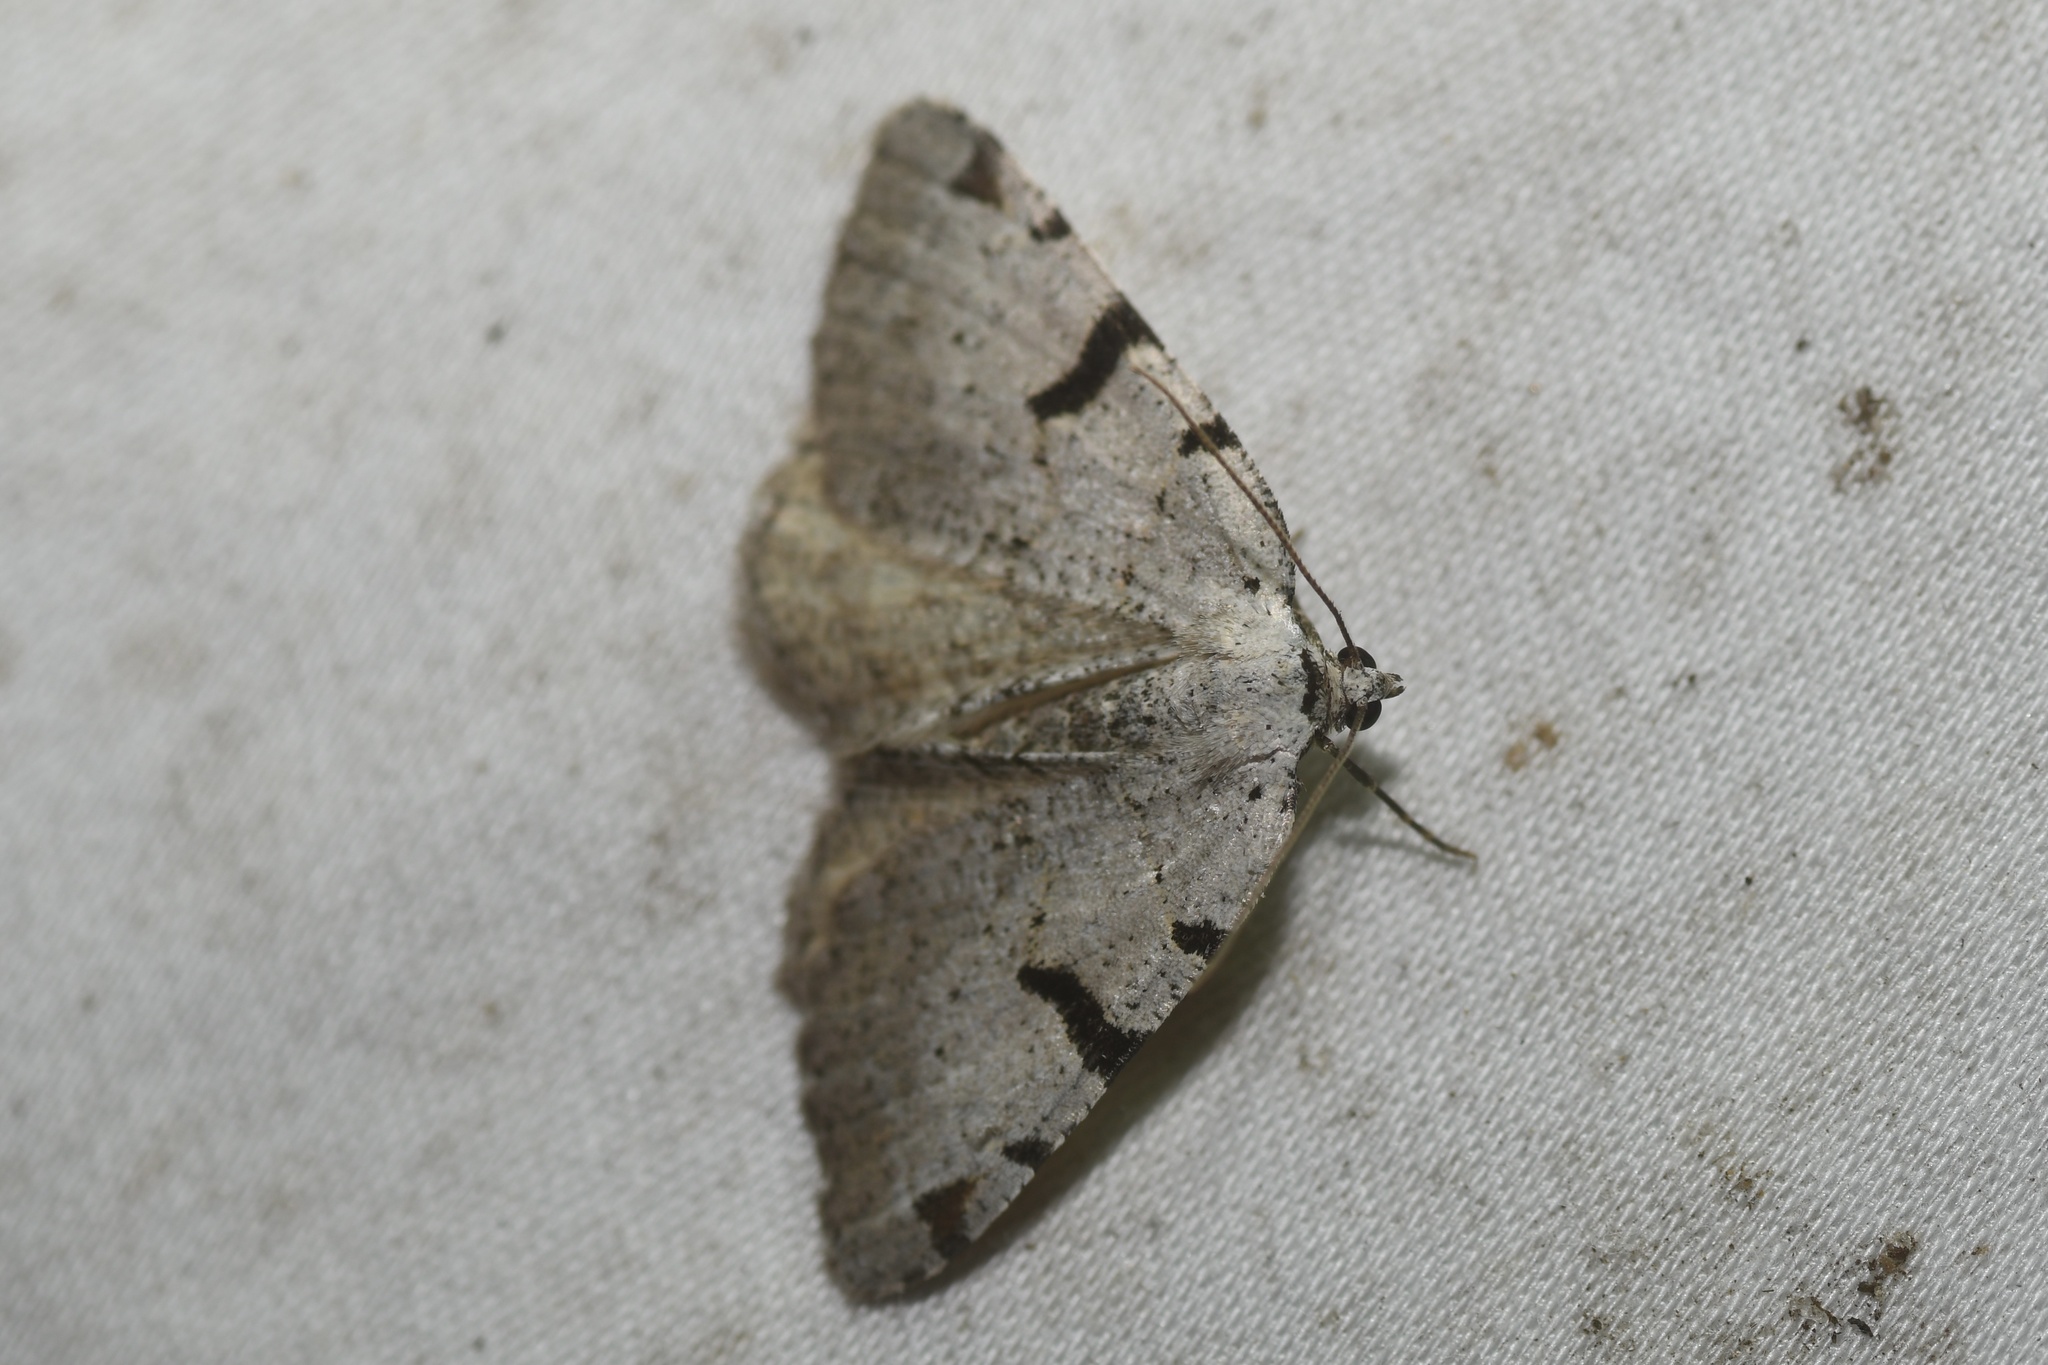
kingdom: Animalia
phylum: Arthropoda
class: Insecta
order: Lepidoptera
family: Geometridae
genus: Macaria
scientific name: Macaria subcessaria
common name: Barred angle
